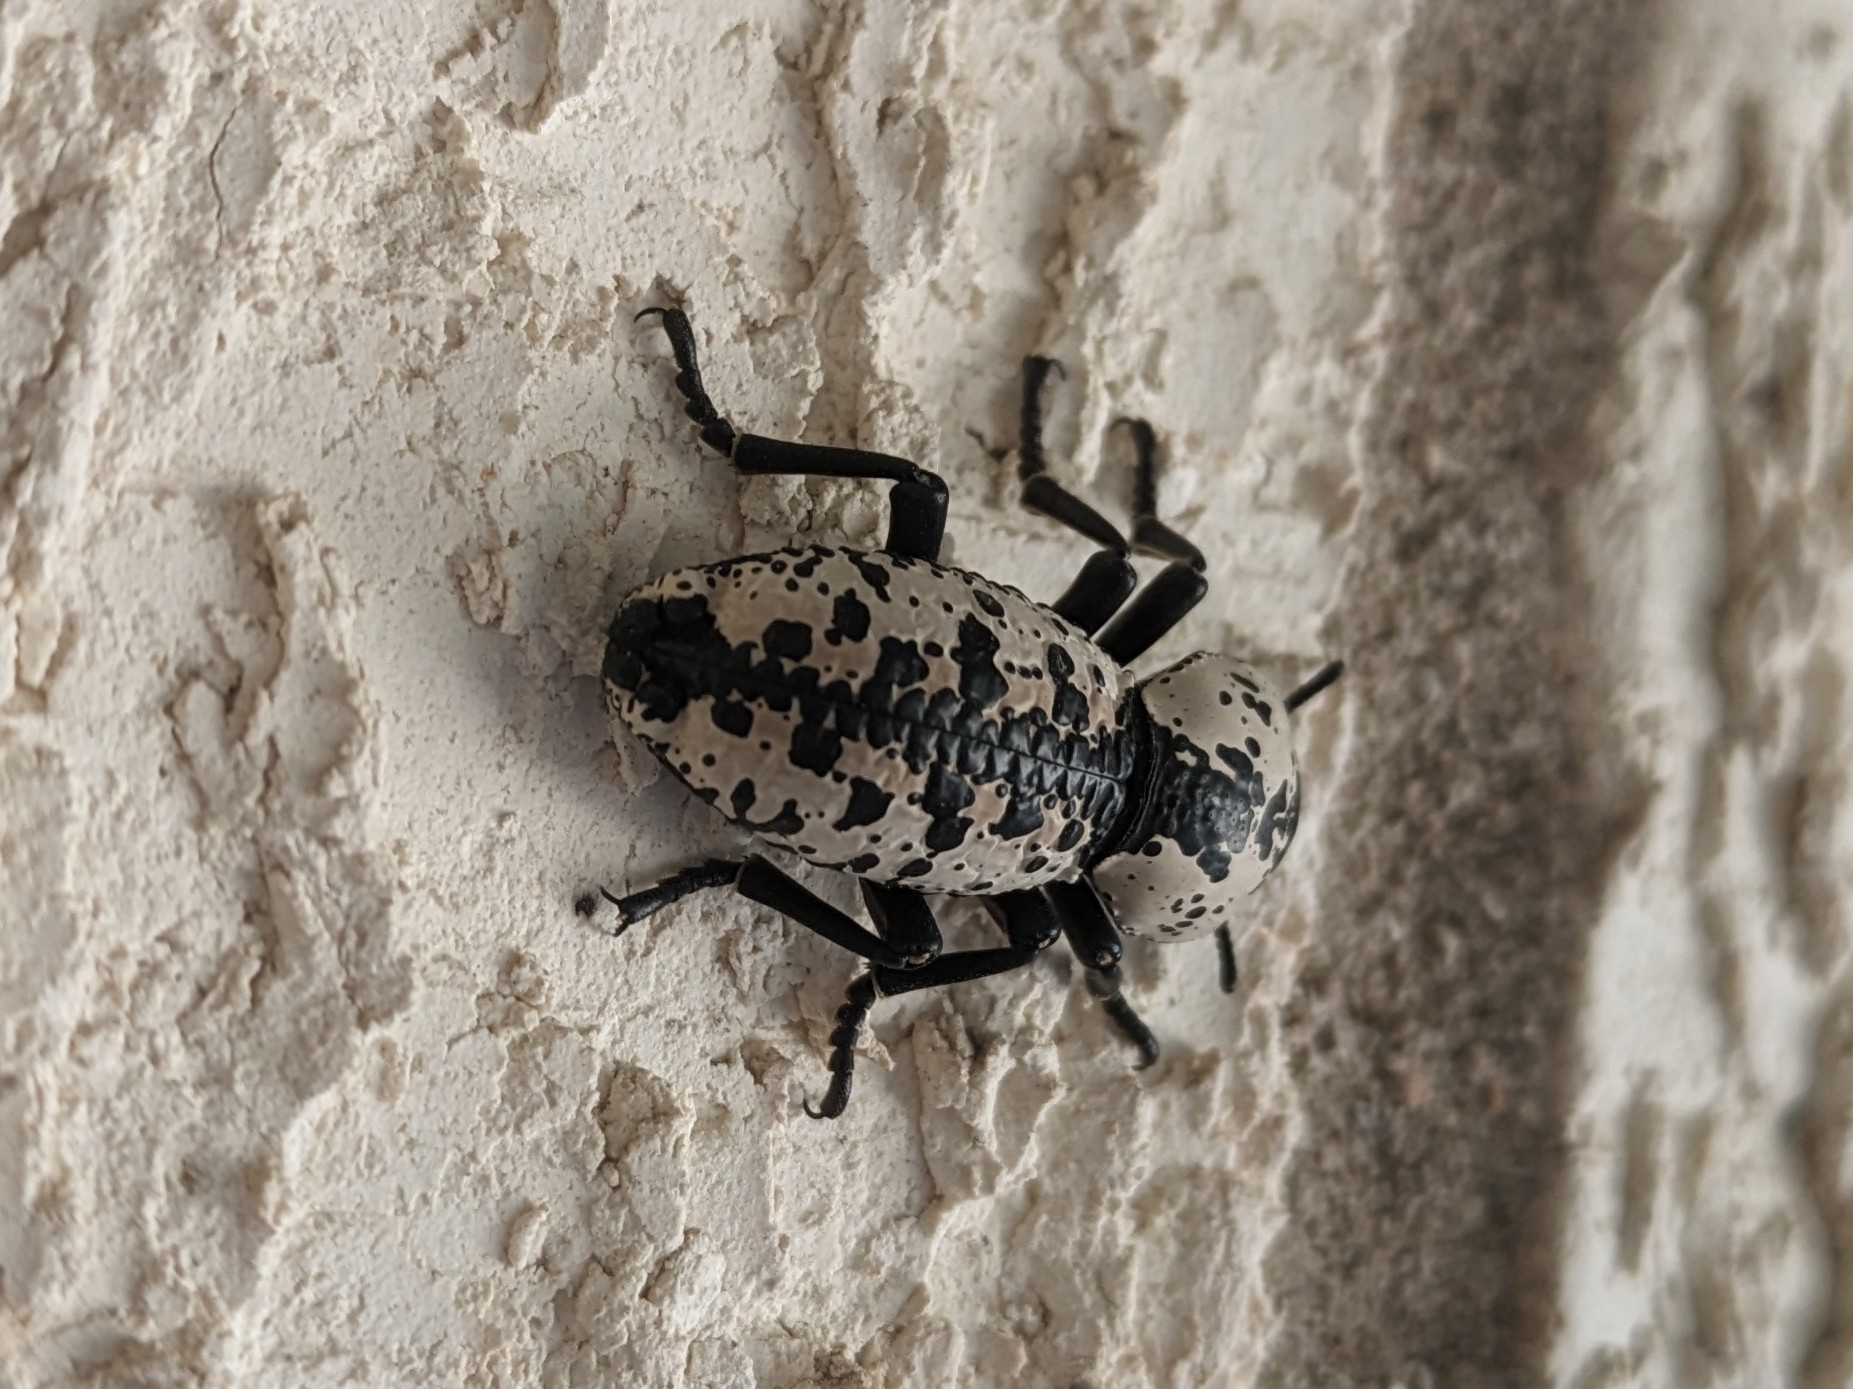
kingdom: Animalia
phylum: Arthropoda
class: Insecta
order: Coleoptera
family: Zopheridae
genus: Zopherus
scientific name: Zopherus nodulosus
